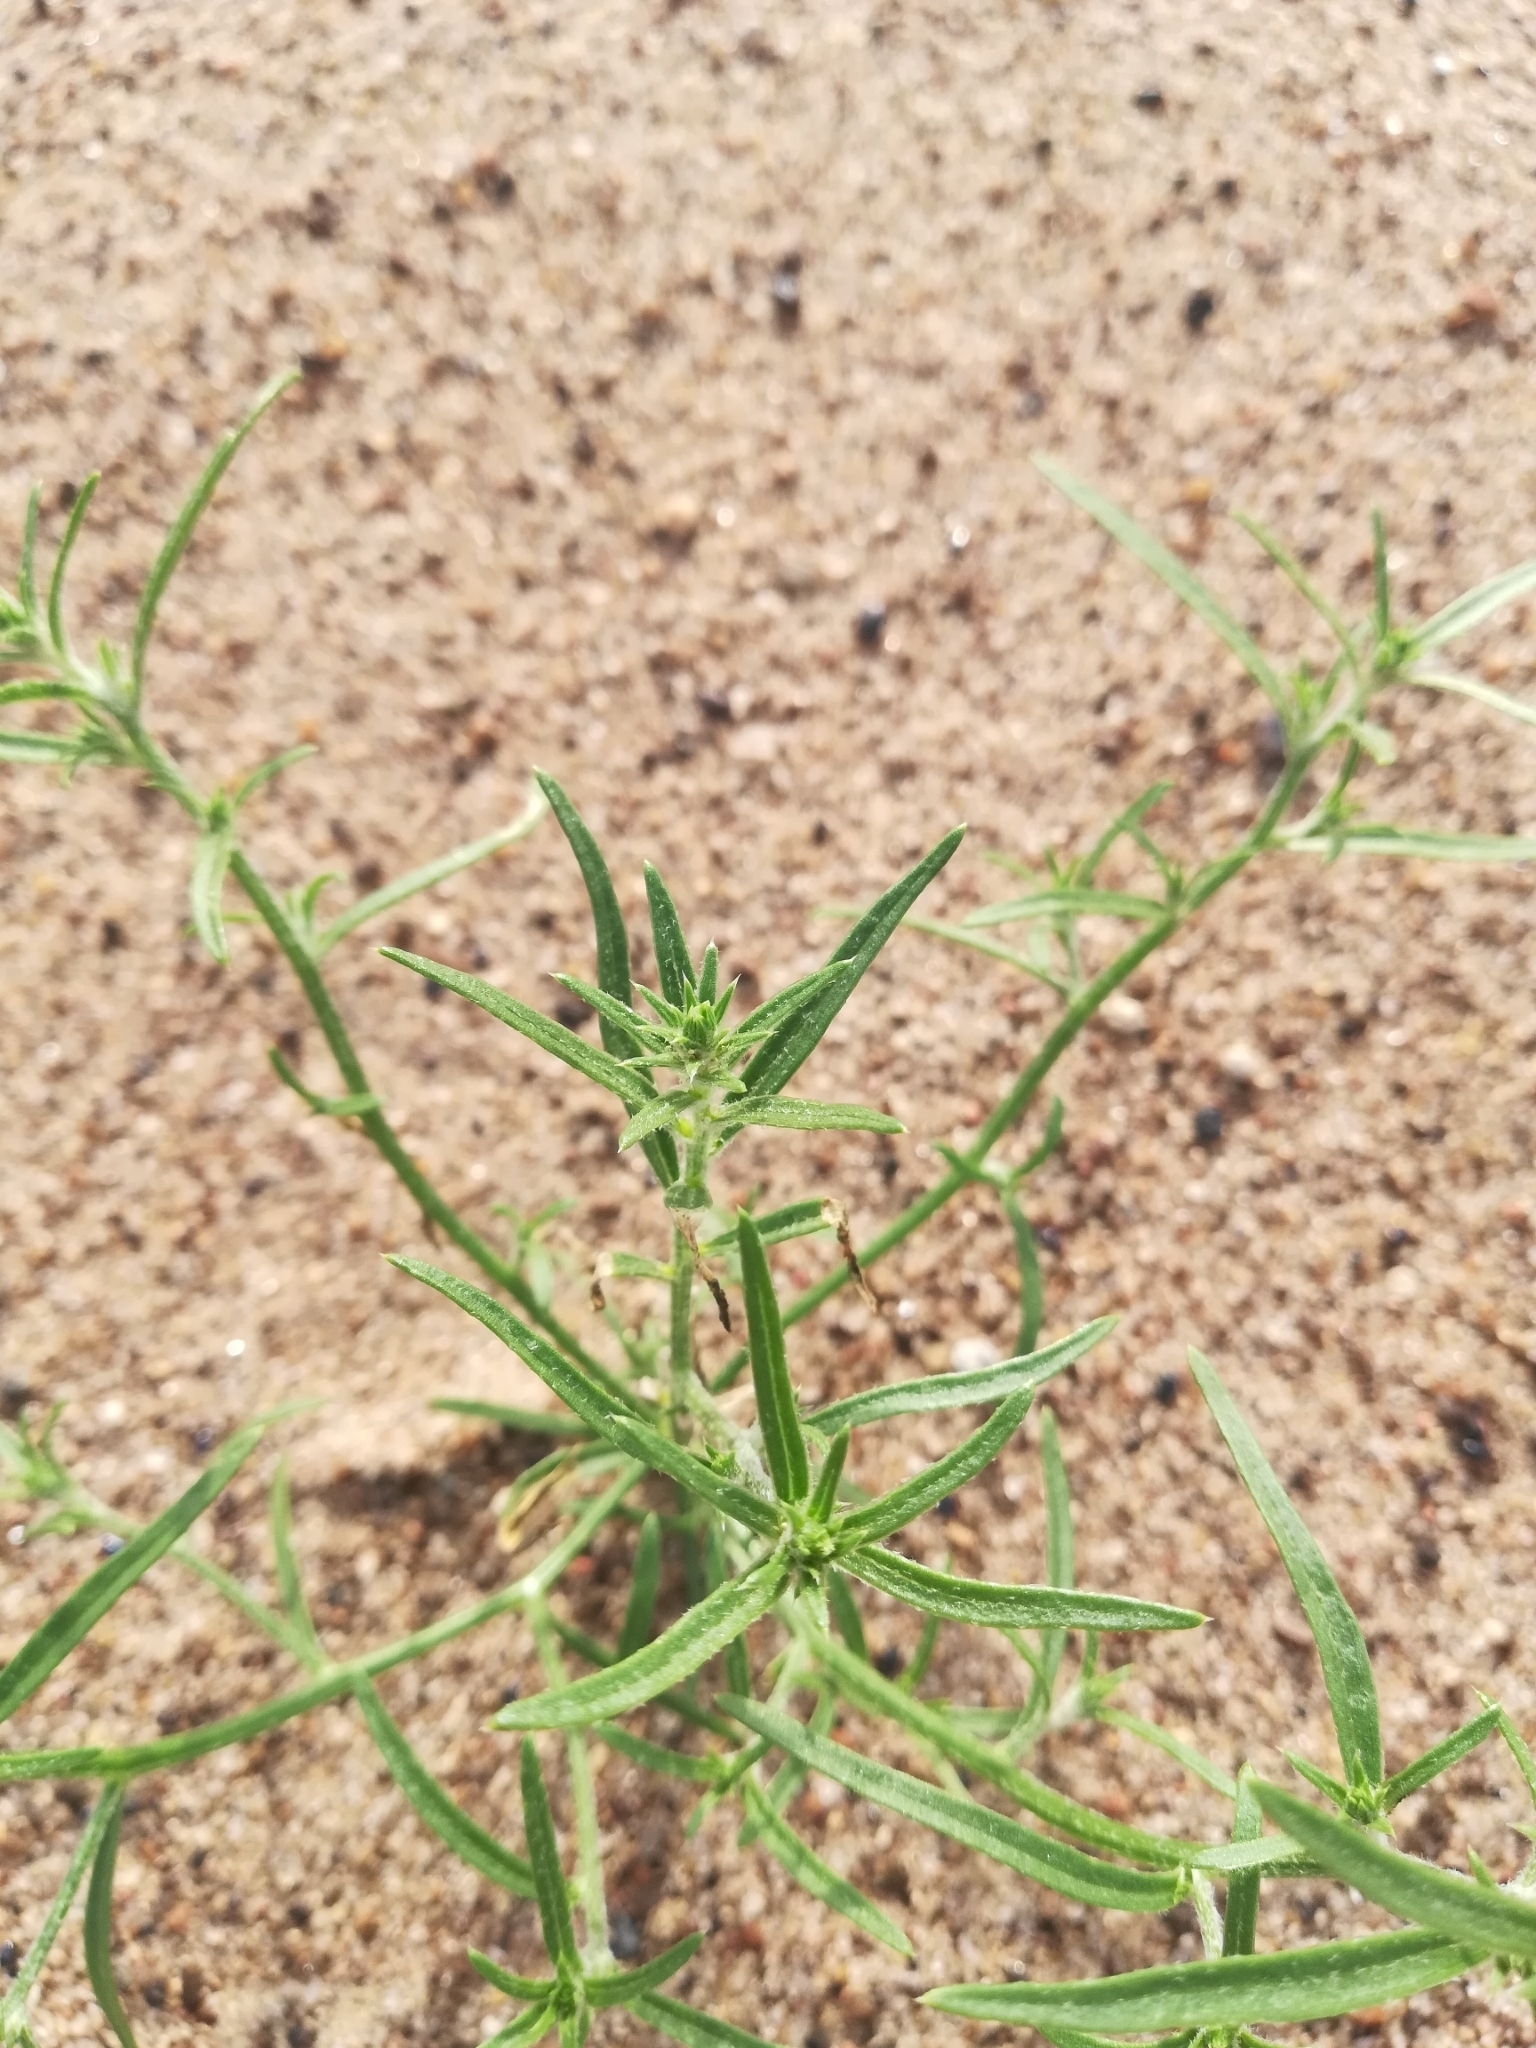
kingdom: Plantae
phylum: Tracheophyta
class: Magnoliopsida
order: Caryophyllales
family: Amaranthaceae
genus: Corispermum
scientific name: Corispermum hyssopifolium
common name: Bugseed
